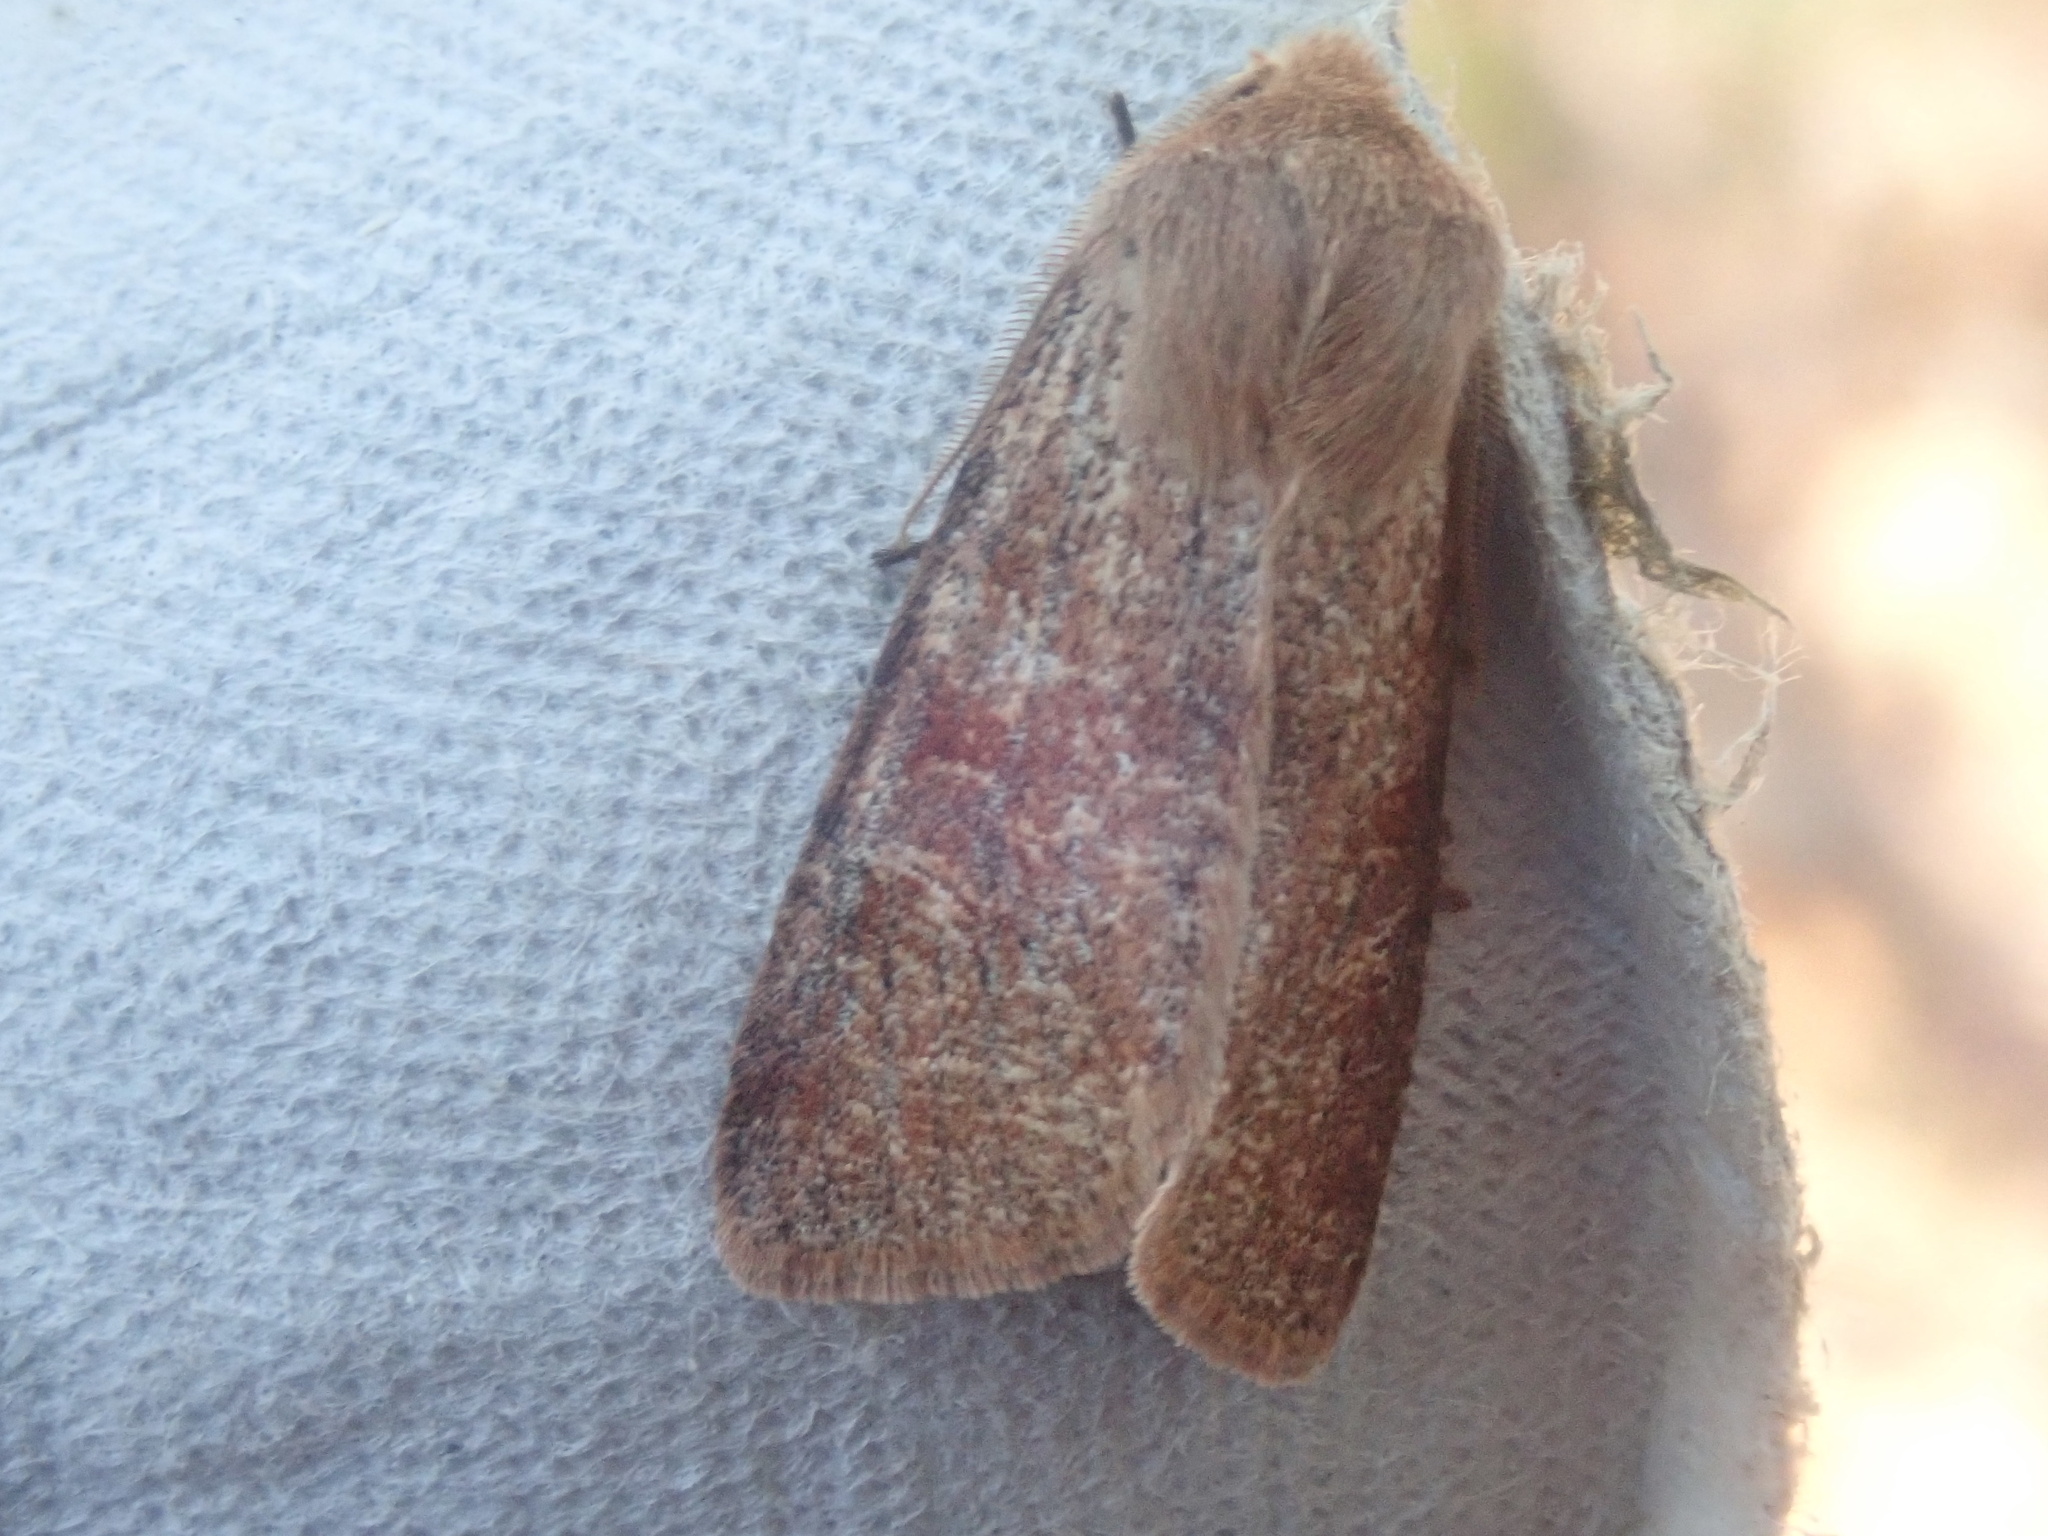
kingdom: Animalia
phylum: Arthropoda
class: Insecta
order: Lepidoptera
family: Noctuidae
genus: Orthosia
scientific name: Orthosia rubescens
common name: Ruby quaker
